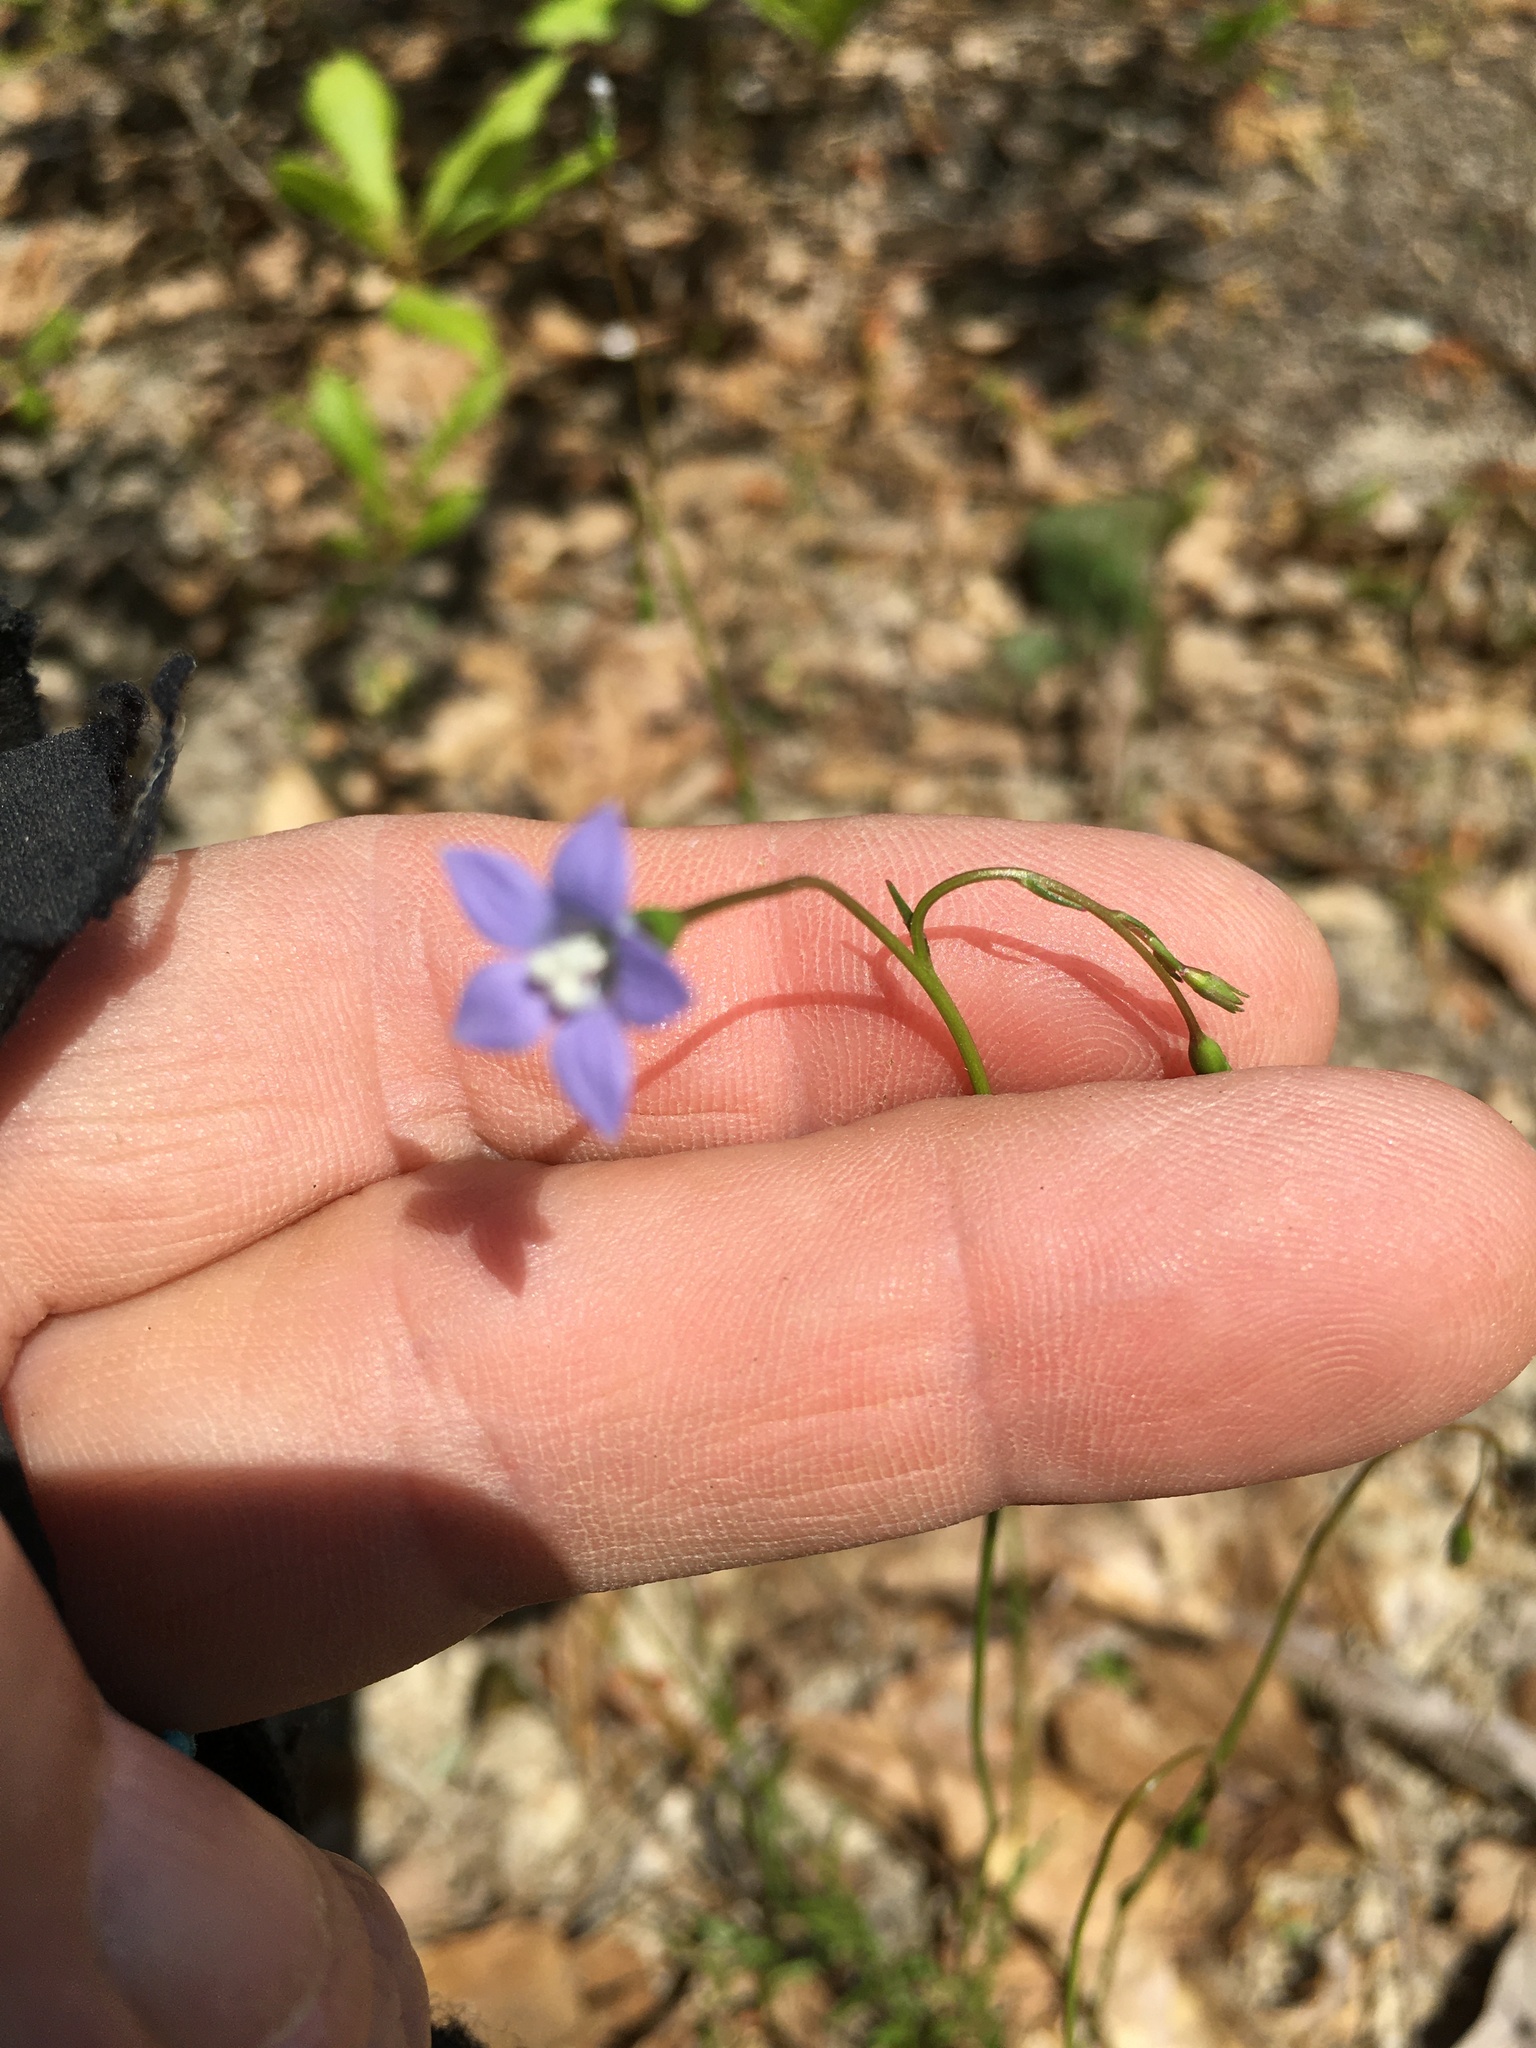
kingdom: Plantae
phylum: Tracheophyta
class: Magnoliopsida
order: Asterales
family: Campanulaceae
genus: Wahlenbergia
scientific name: Wahlenbergia marginata
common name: Southern rockbell
